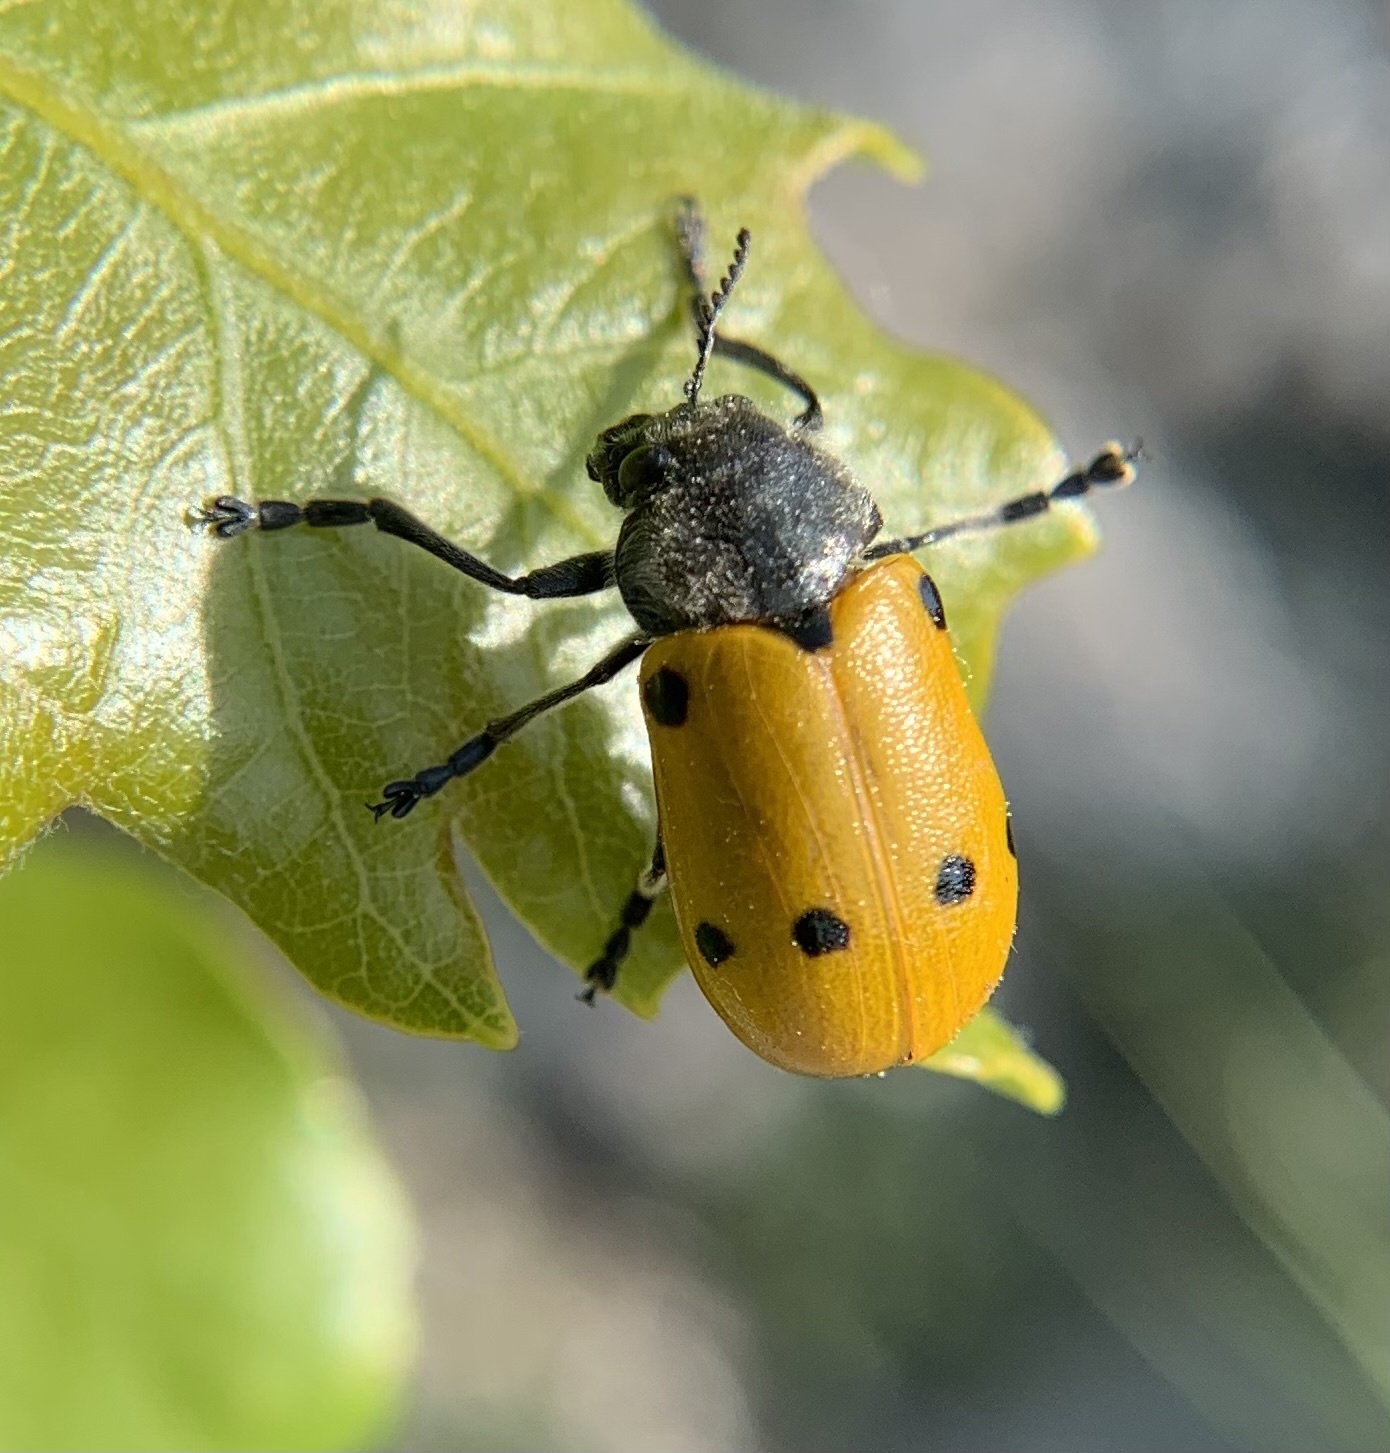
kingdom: Animalia
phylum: Arthropoda
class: Insecta
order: Coleoptera
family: Chrysomelidae
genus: Lachnaia
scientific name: Lachnaia sexpunctata
